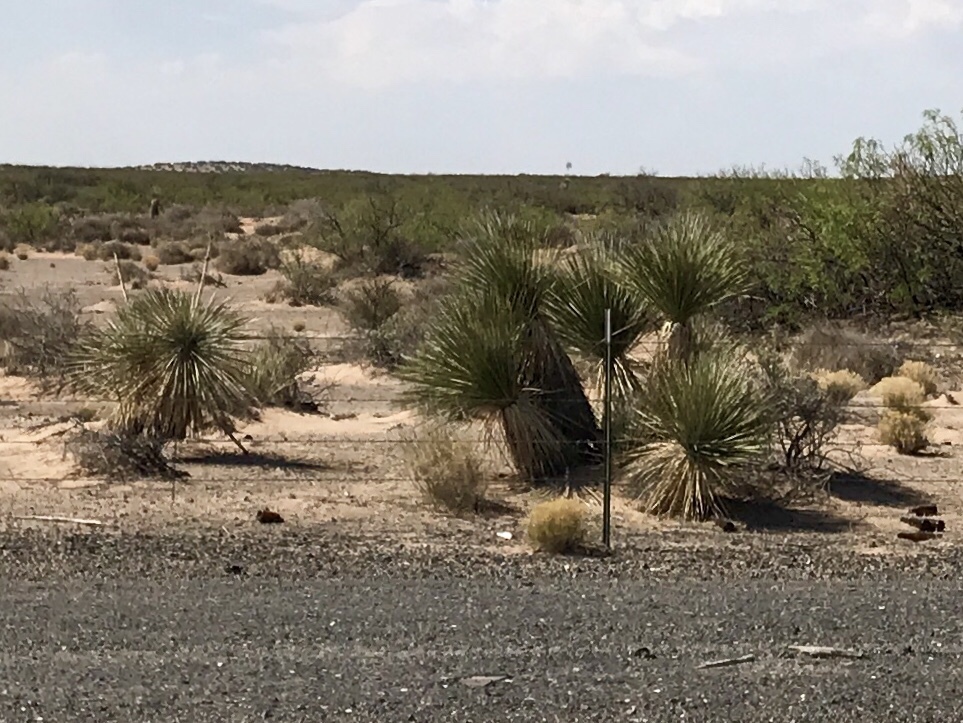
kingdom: Plantae
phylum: Tracheophyta
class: Liliopsida
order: Asparagales
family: Asparagaceae
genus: Yucca
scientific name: Yucca elata
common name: Palmella
